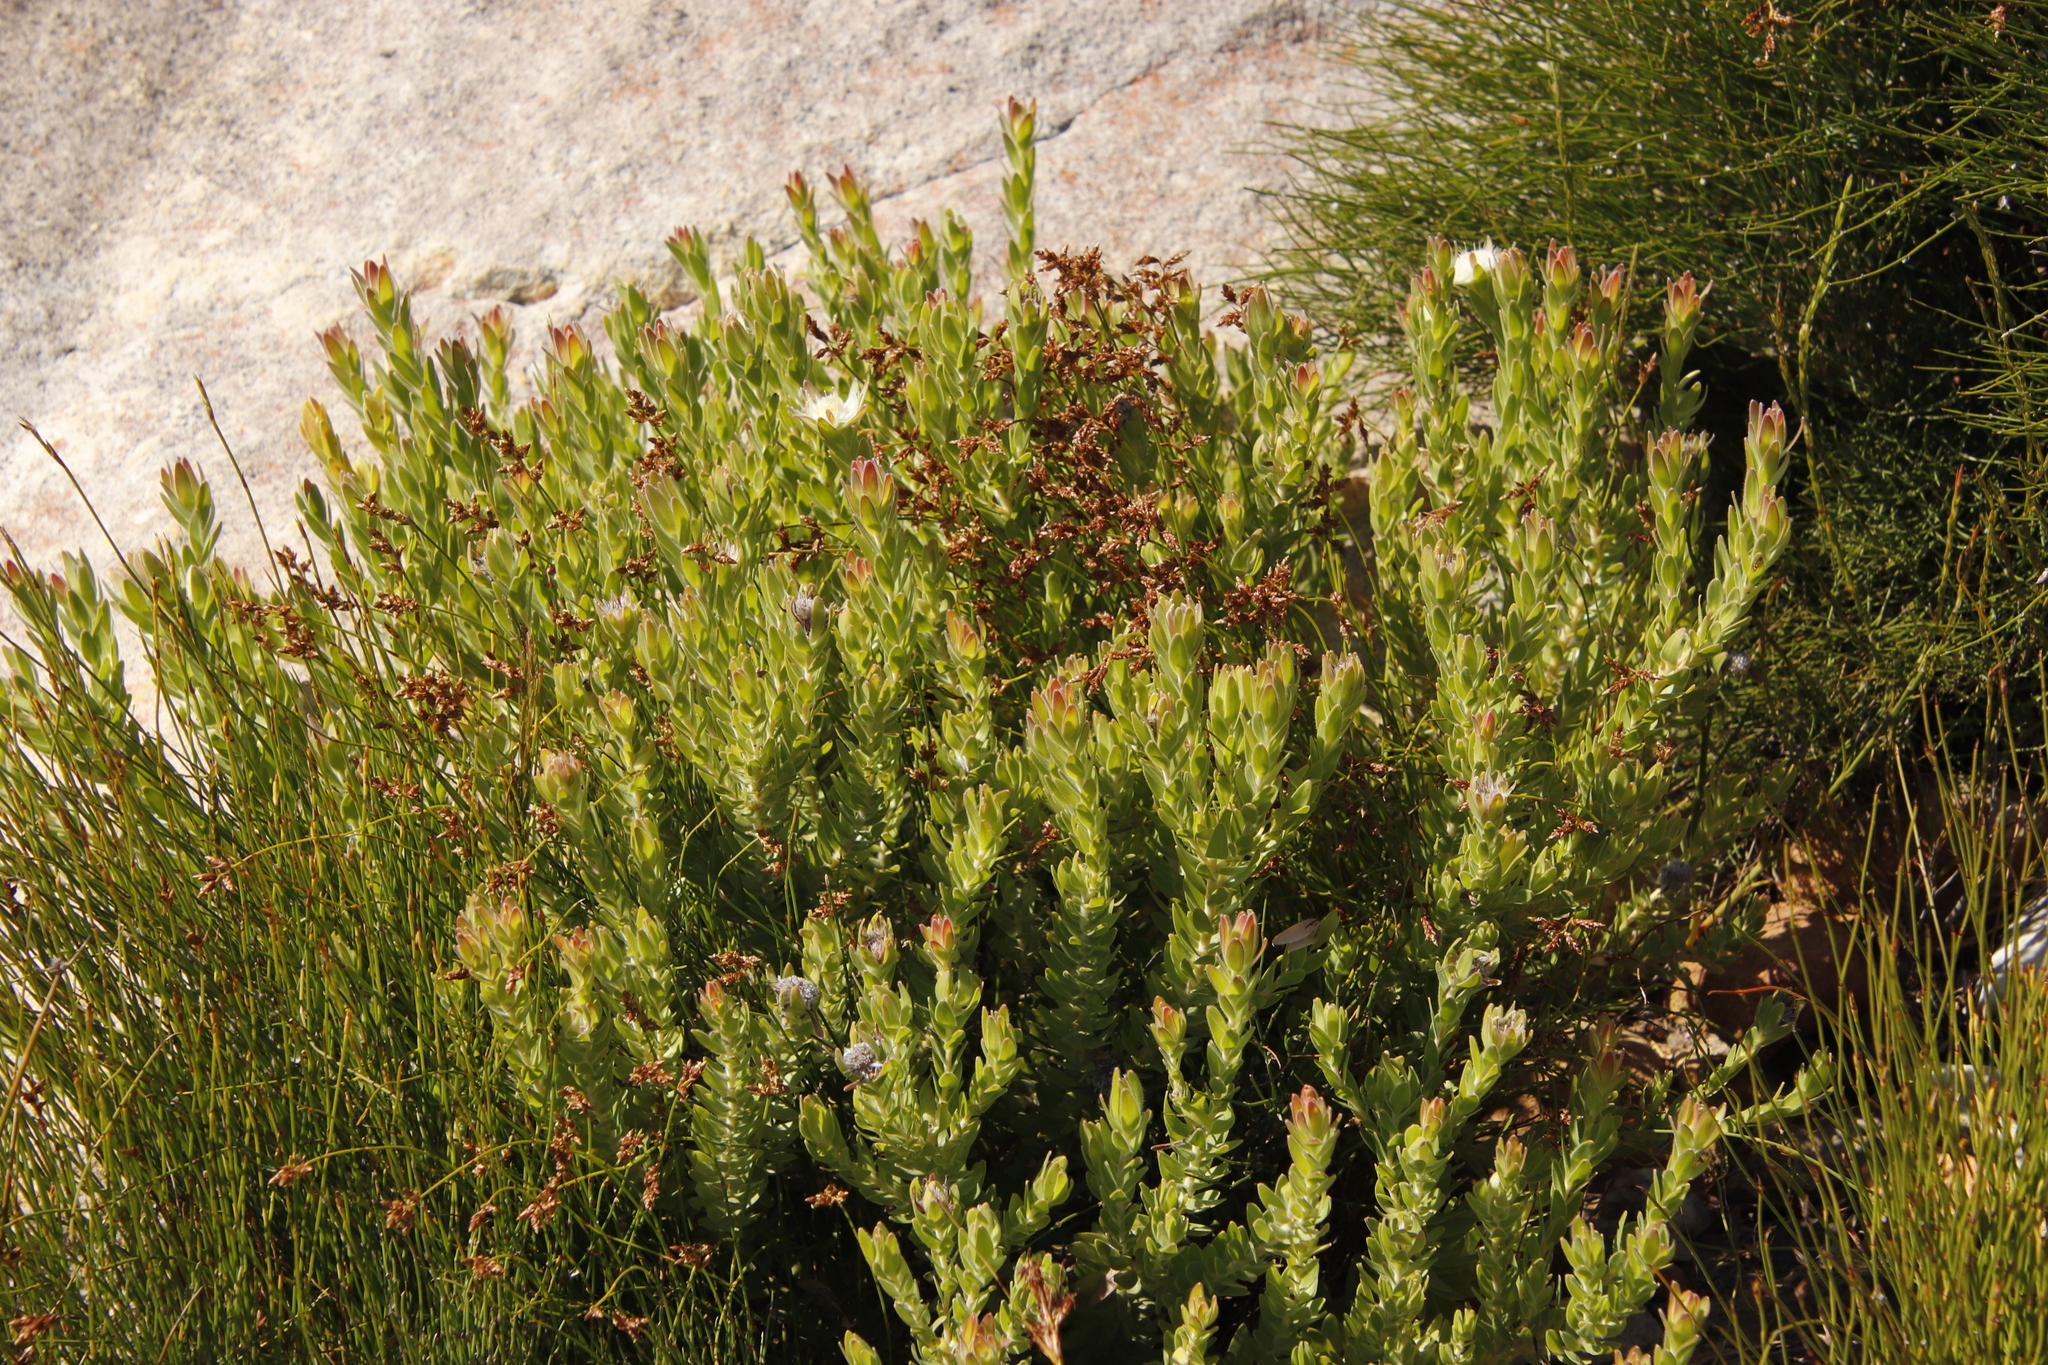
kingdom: Plantae
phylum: Tracheophyta
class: Magnoliopsida
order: Proteales
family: Proteaceae
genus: Diastella
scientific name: Diastella thymelaeoides
